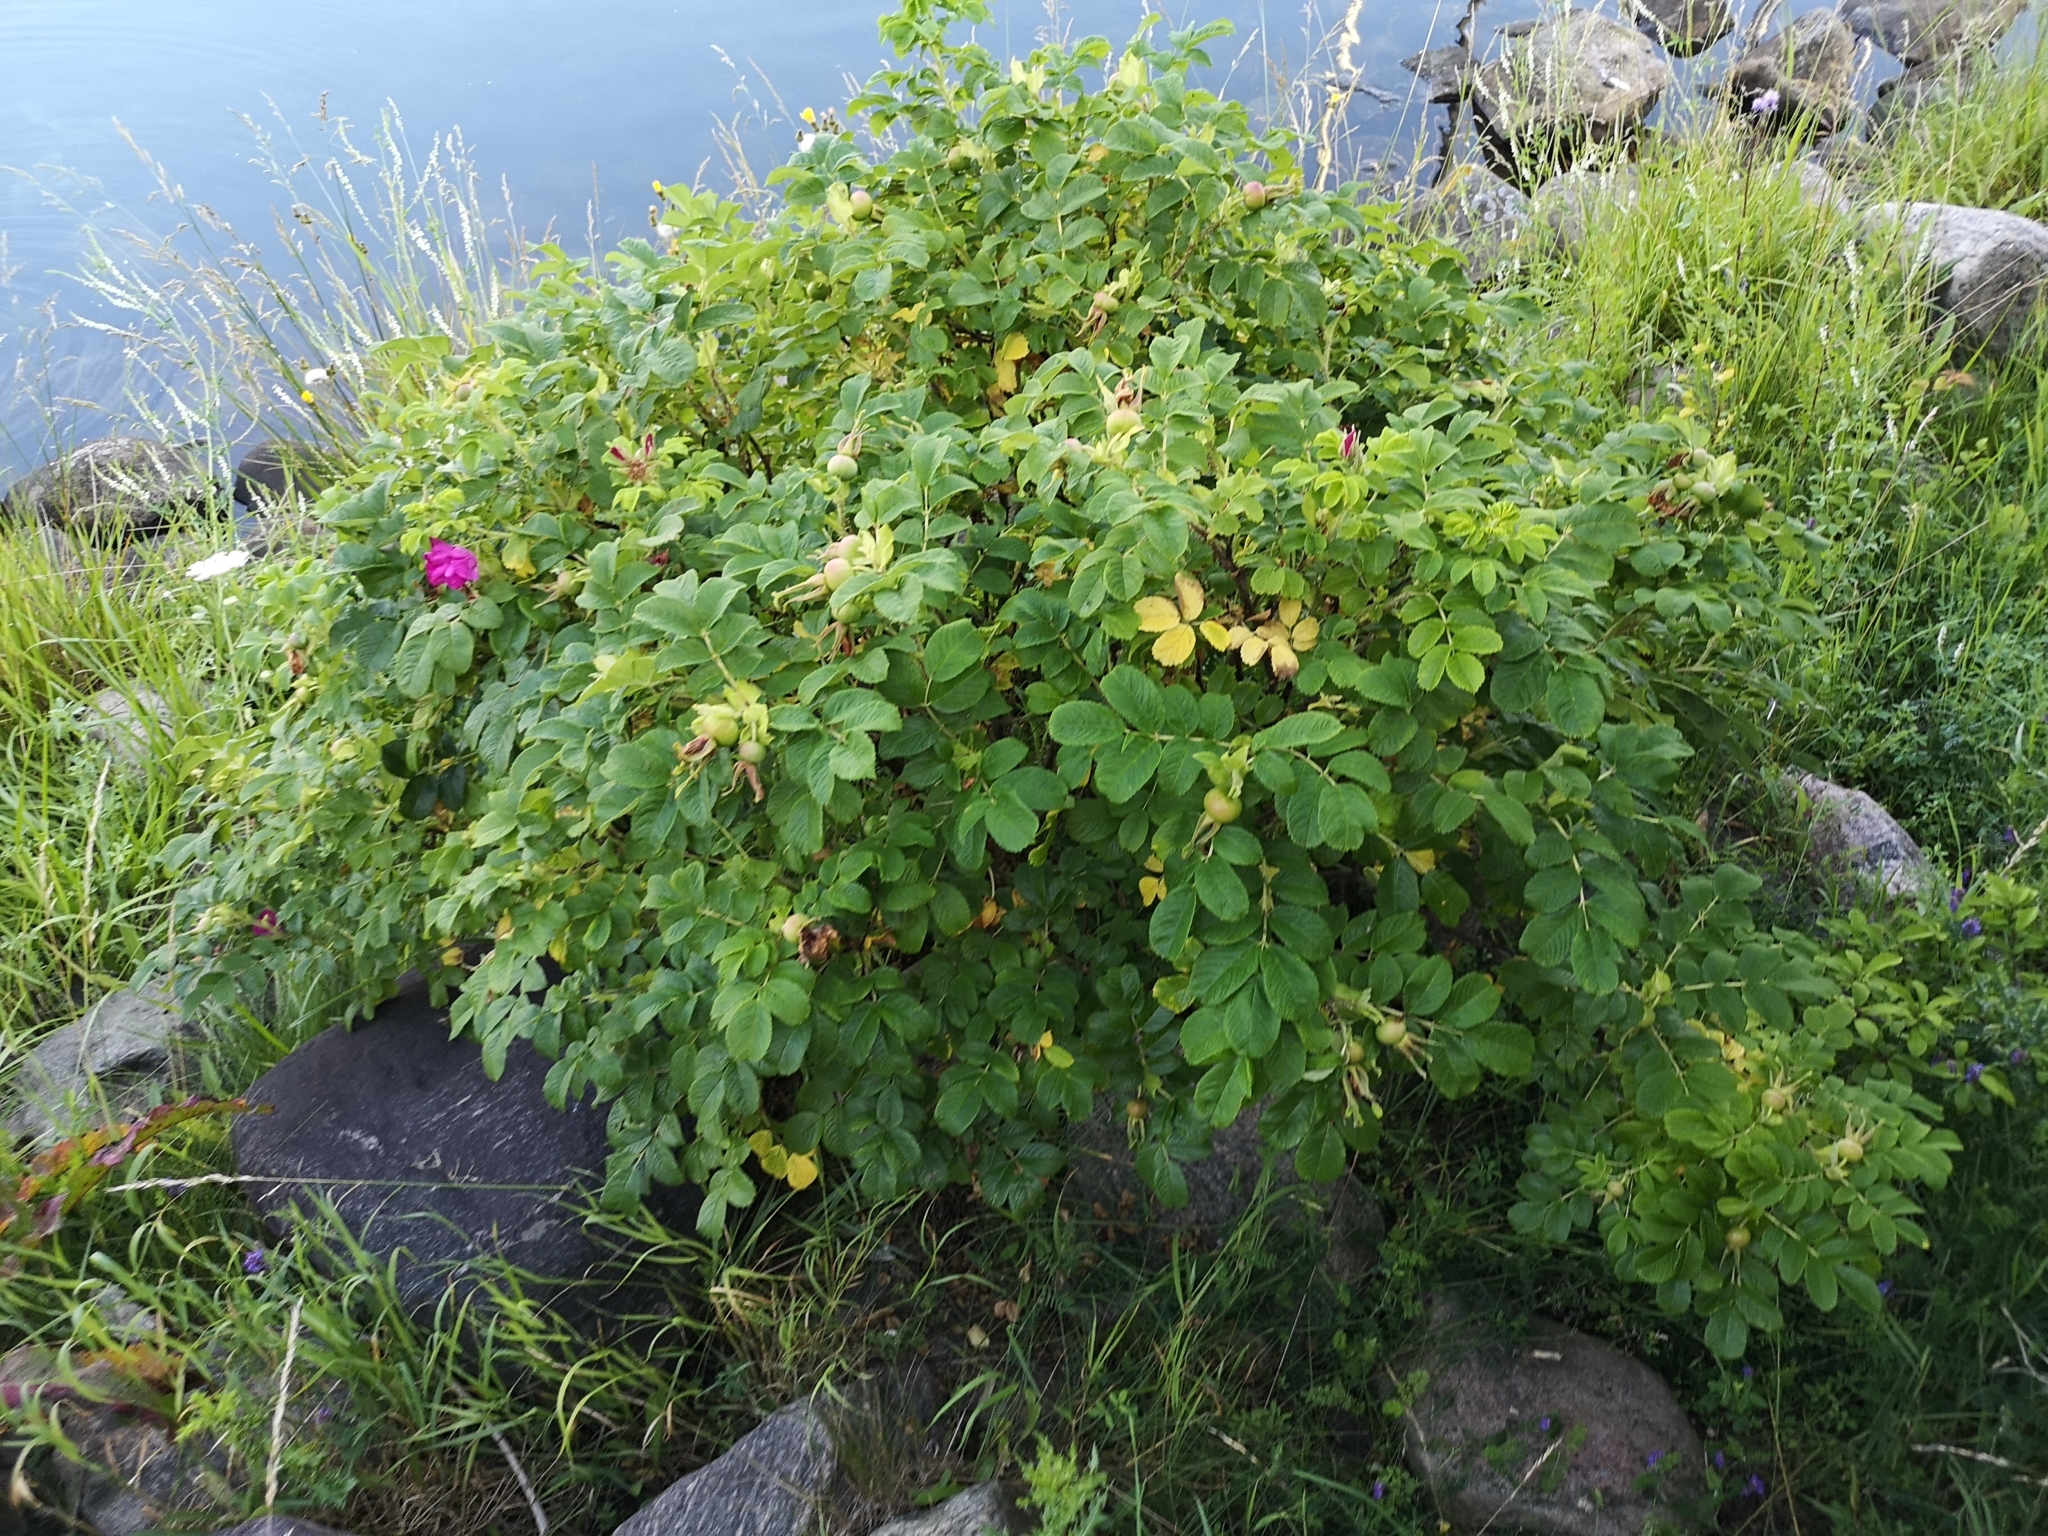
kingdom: Plantae
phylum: Tracheophyta
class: Magnoliopsida
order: Rosales
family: Rosaceae
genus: Rosa
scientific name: Rosa rugosa
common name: Japanese rose
